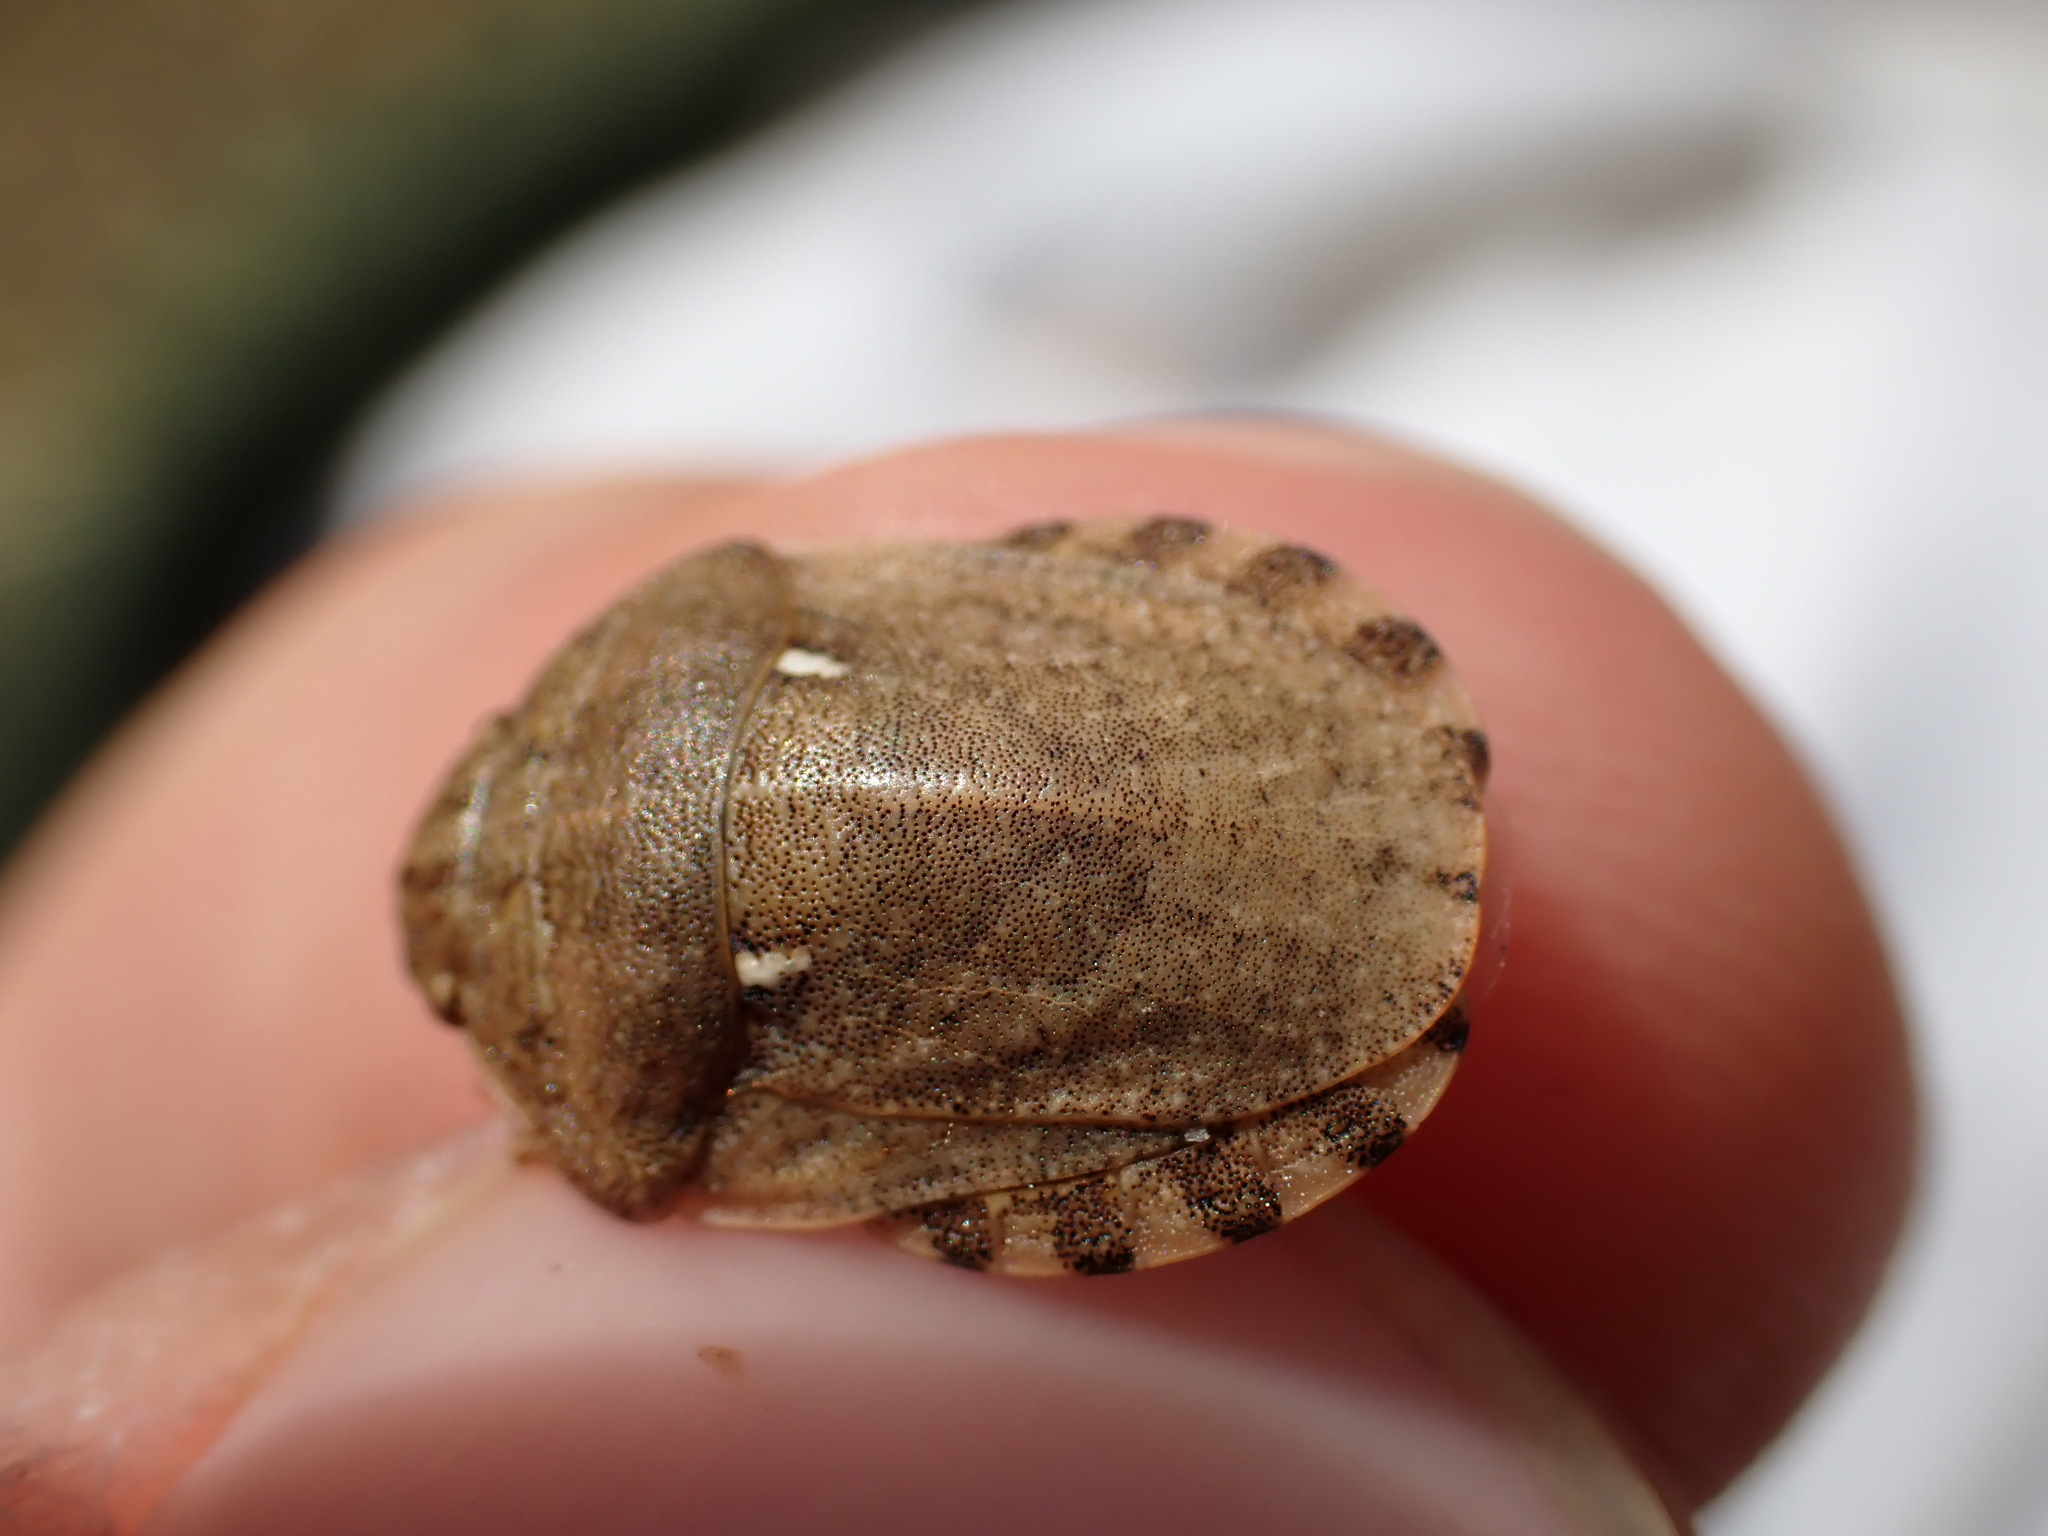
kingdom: Animalia
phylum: Arthropoda
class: Insecta
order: Hemiptera
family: Scutelleridae
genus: Eurygaster
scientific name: Eurygaster maura
